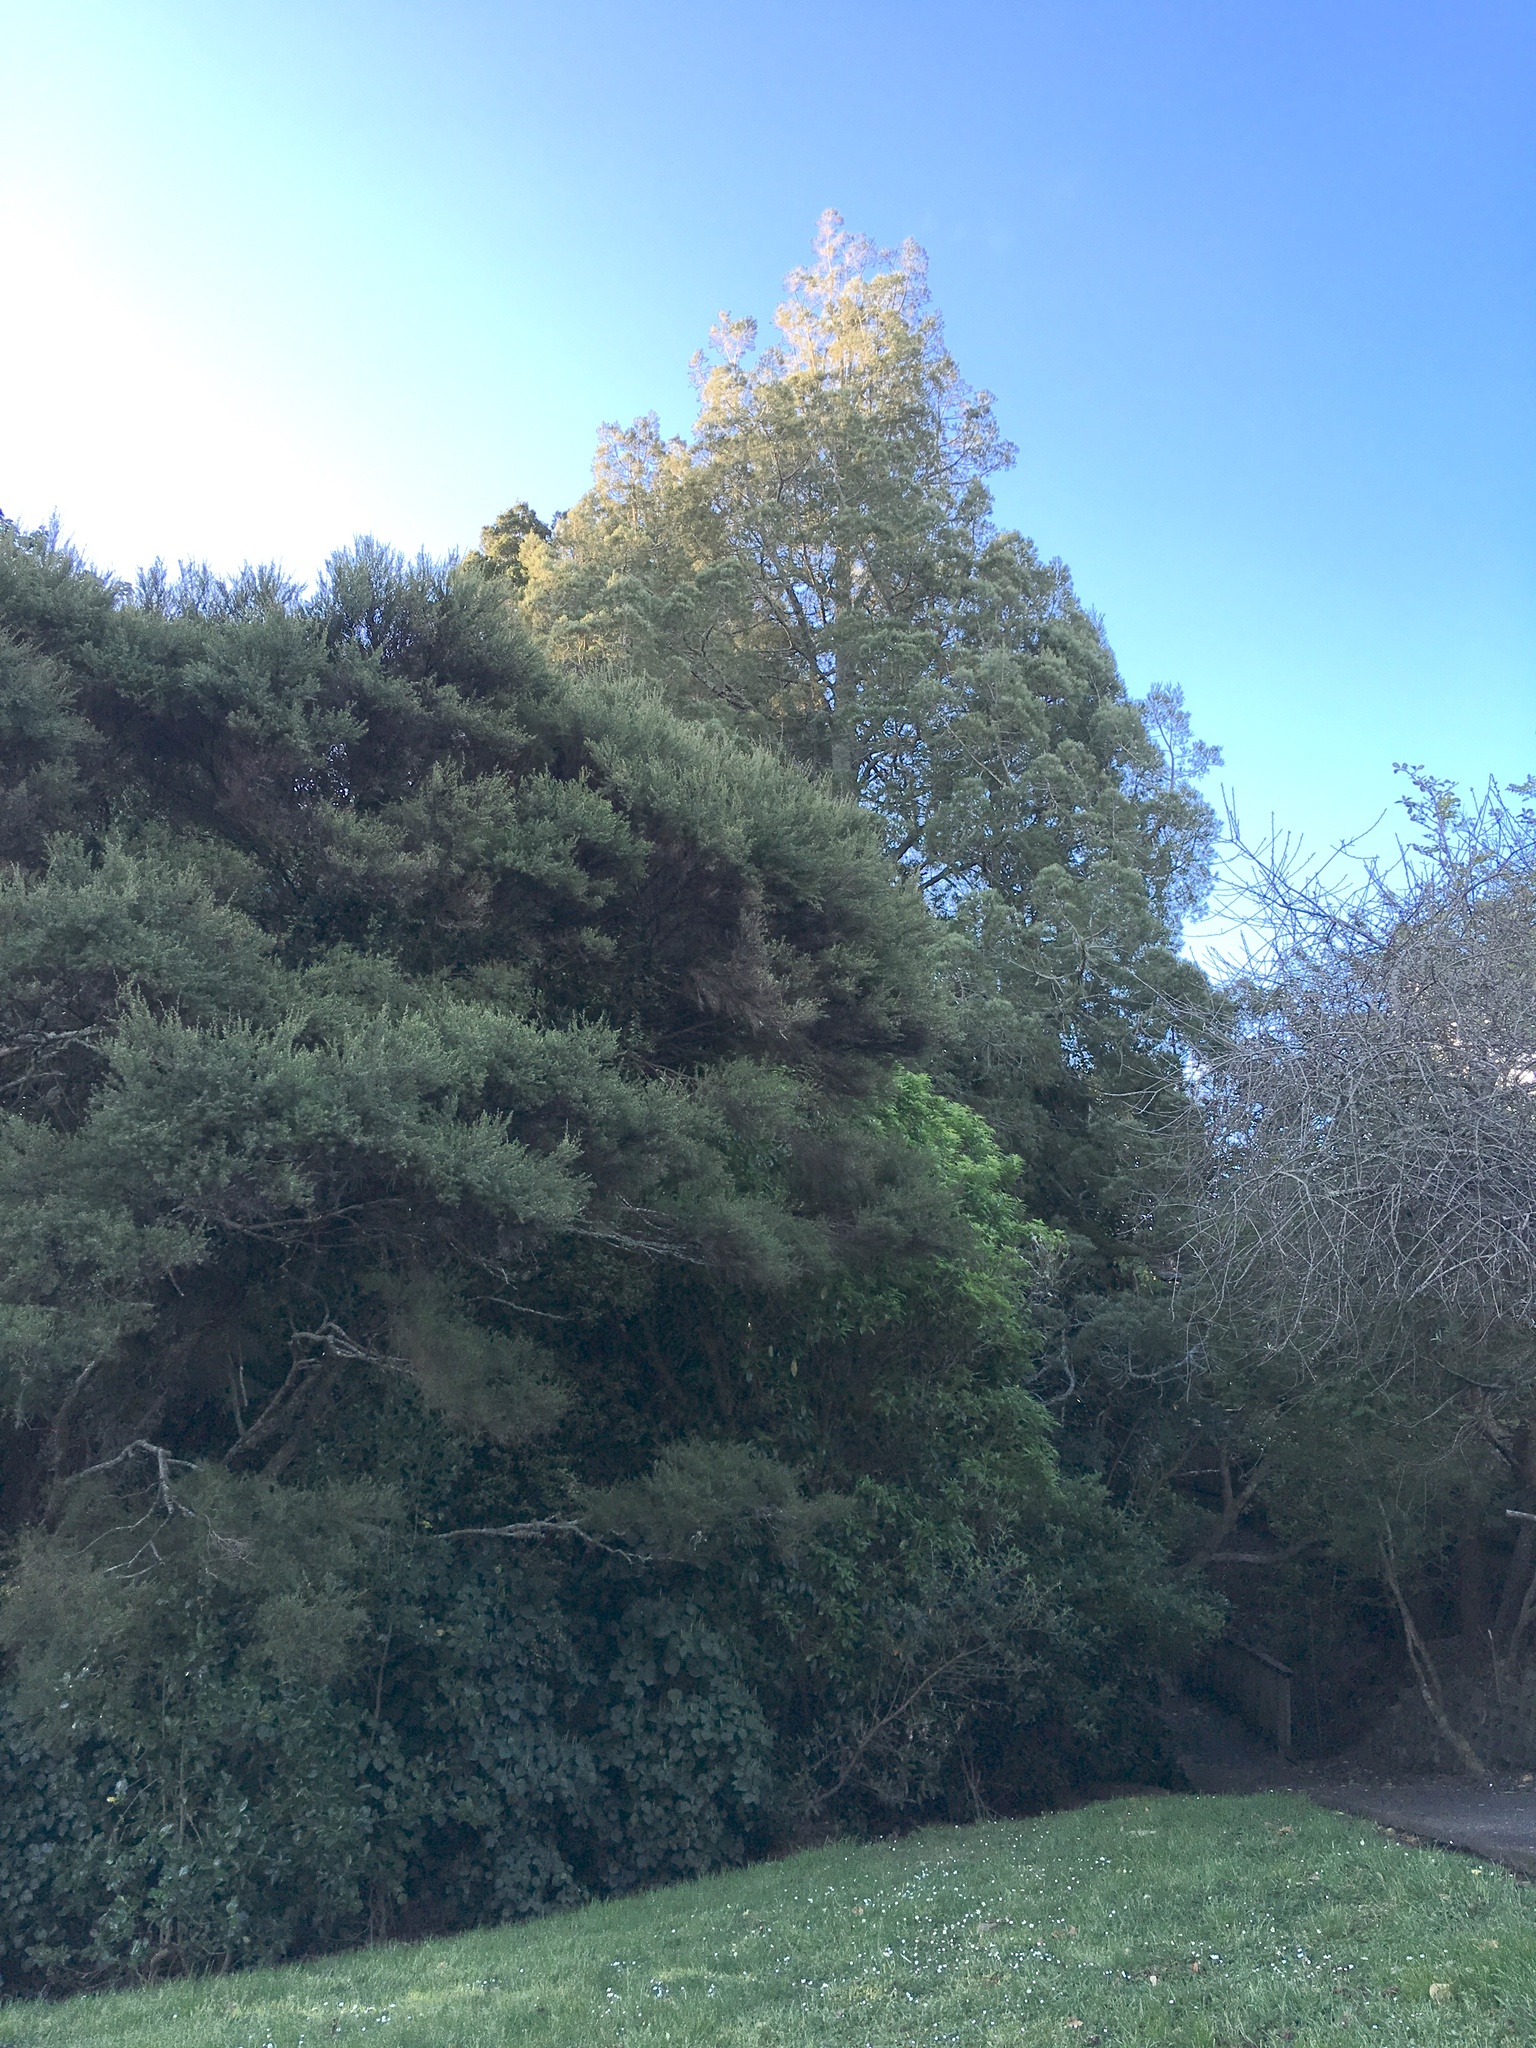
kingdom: Plantae
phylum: Tracheophyta
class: Pinopsida
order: Pinales
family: Podocarpaceae
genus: Dacrycarpus
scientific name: Dacrycarpus dacrydioides
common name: White pine
